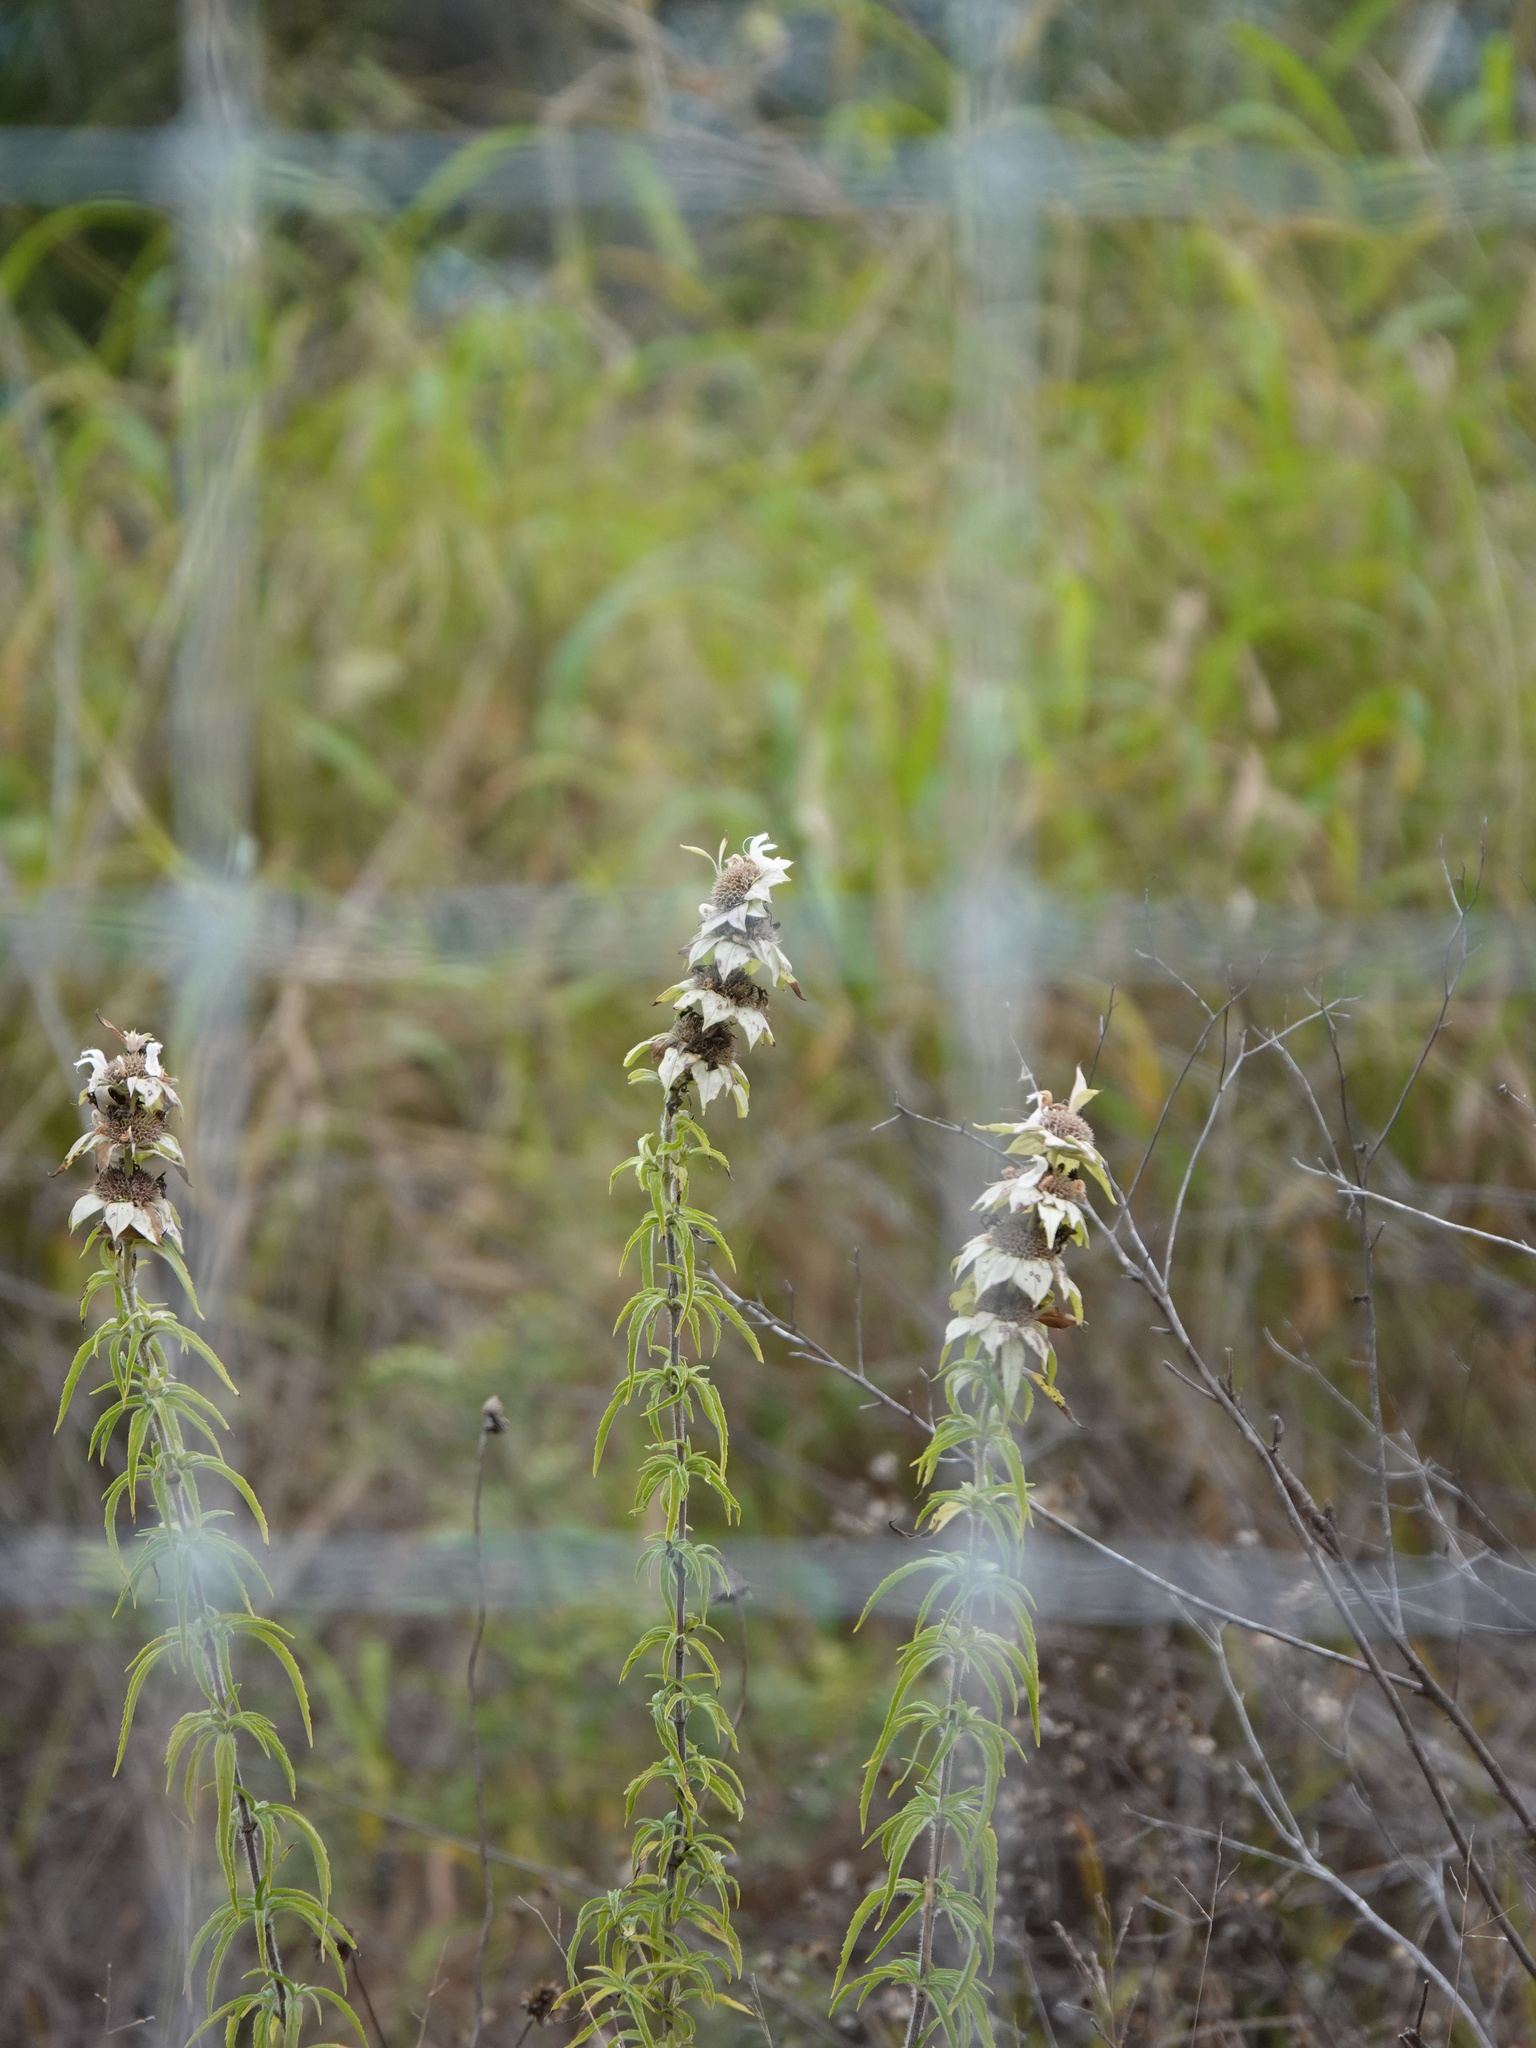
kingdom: Plantae
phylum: Tracheophyta
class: Magnoliopsida
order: Lamiales
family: Lamiaceae
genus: Monarda
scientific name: Monarda punctata
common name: Dotted monarda
